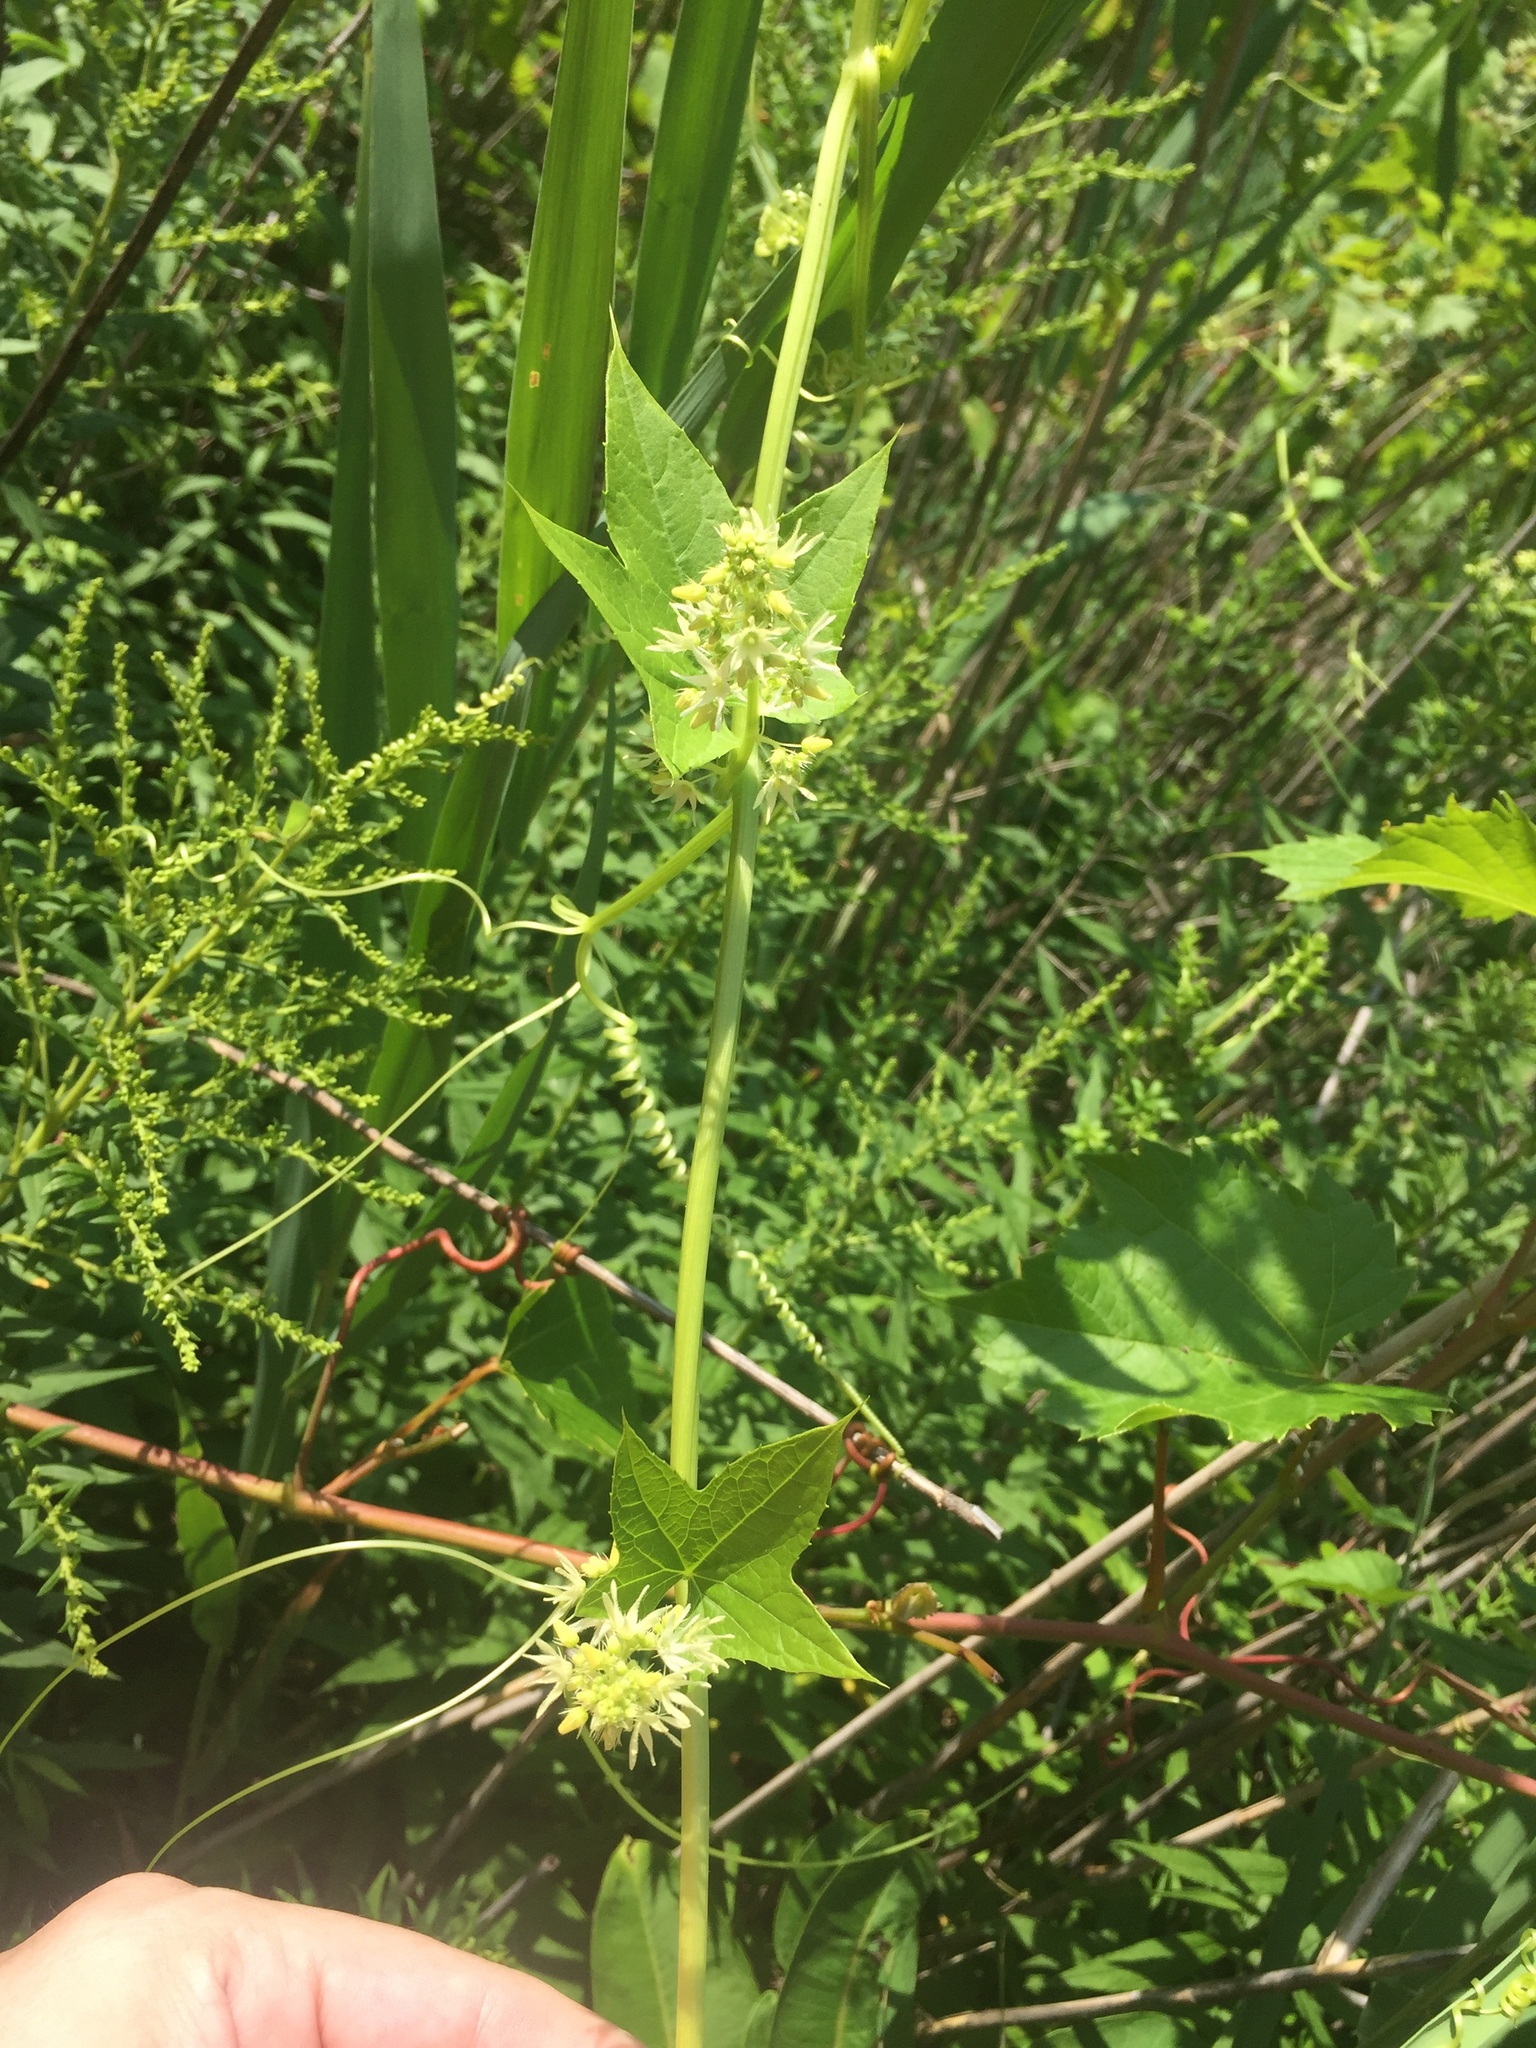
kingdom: Plantae
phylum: Tracheophyta
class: Magnoliopsida
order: Cucurbitales
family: Cucurbitaceae
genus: Echinocystis
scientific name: Echinocystis lobata
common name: Wild cucumber
